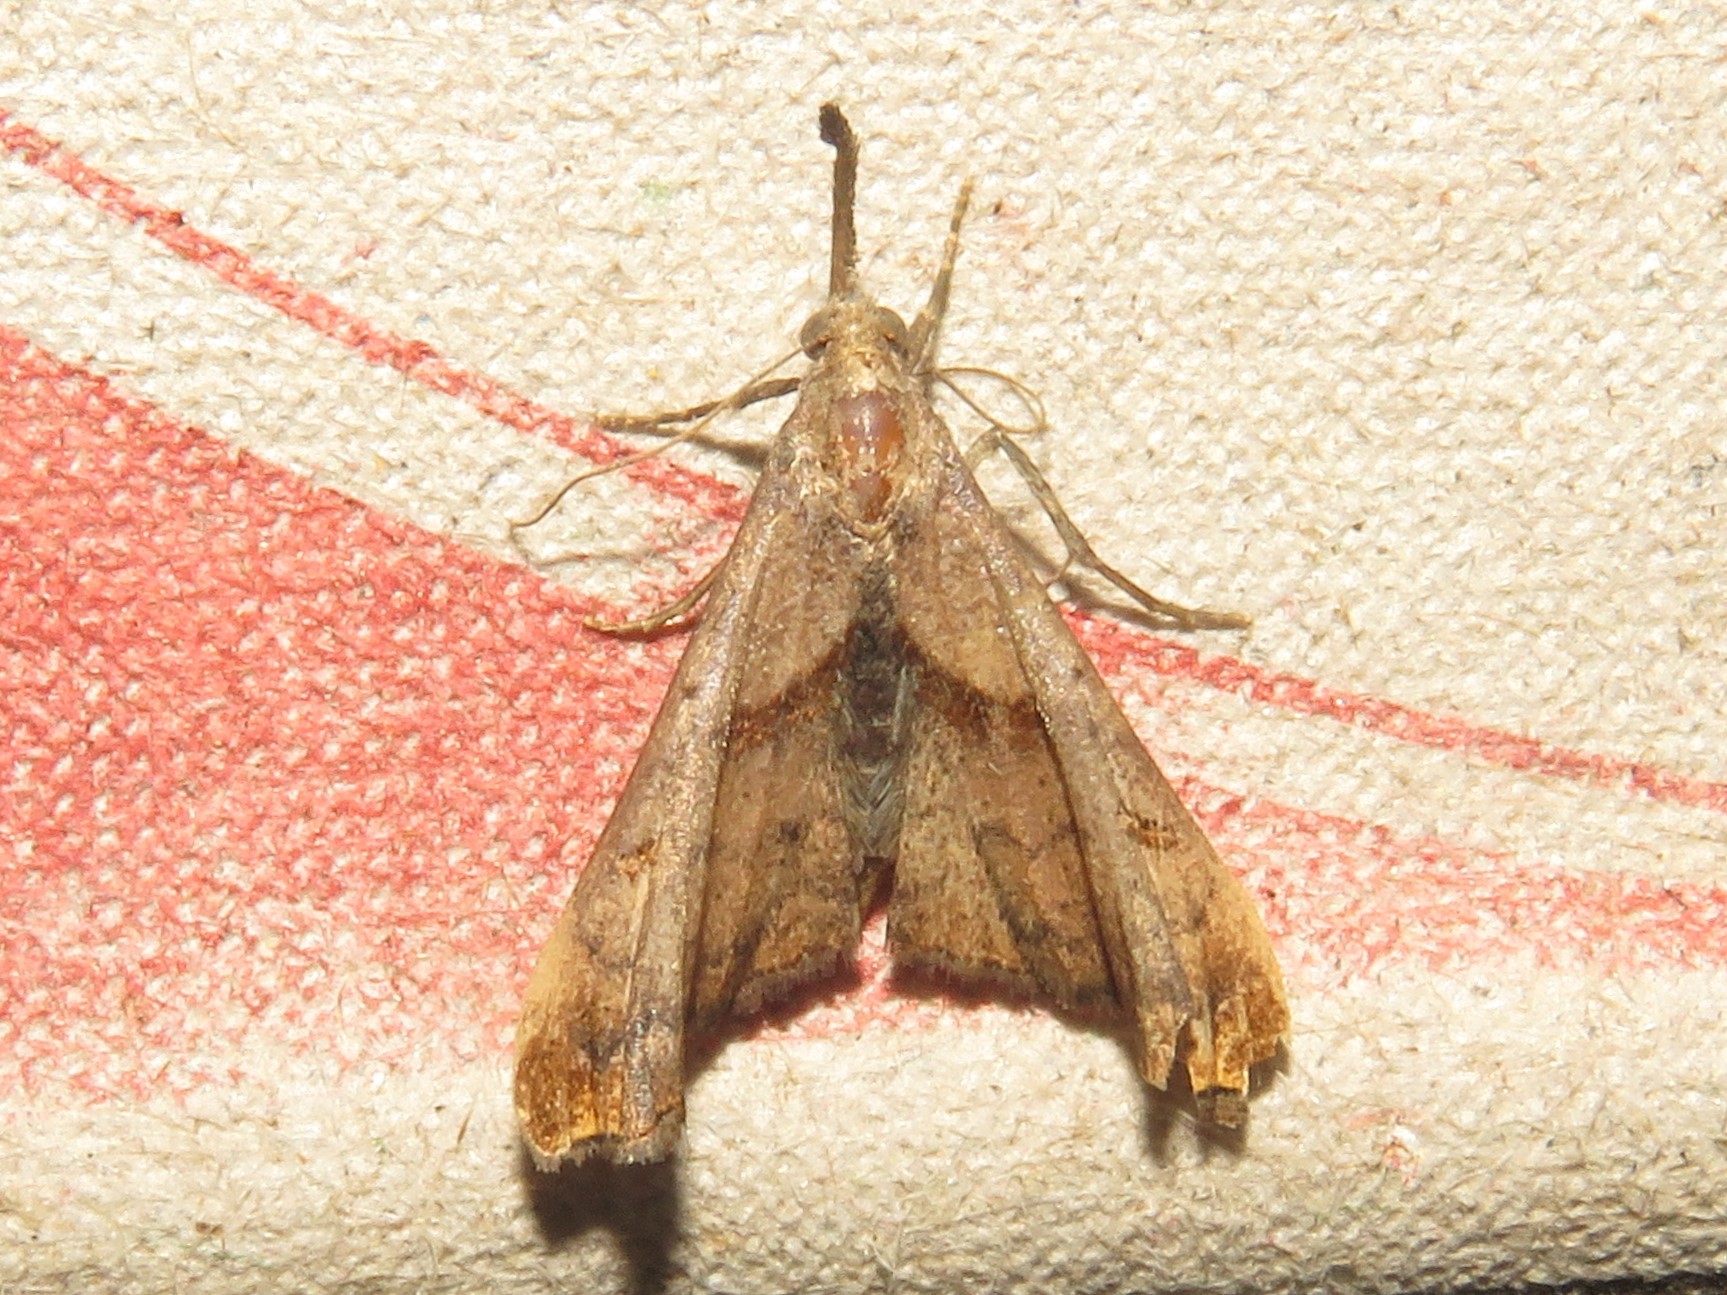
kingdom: Animalia
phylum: Arthropoda
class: Insecta
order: Lepidoptera
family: Erebidae
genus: Palthis
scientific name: Palthis angulalis
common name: Dark-spotted palthis moth
